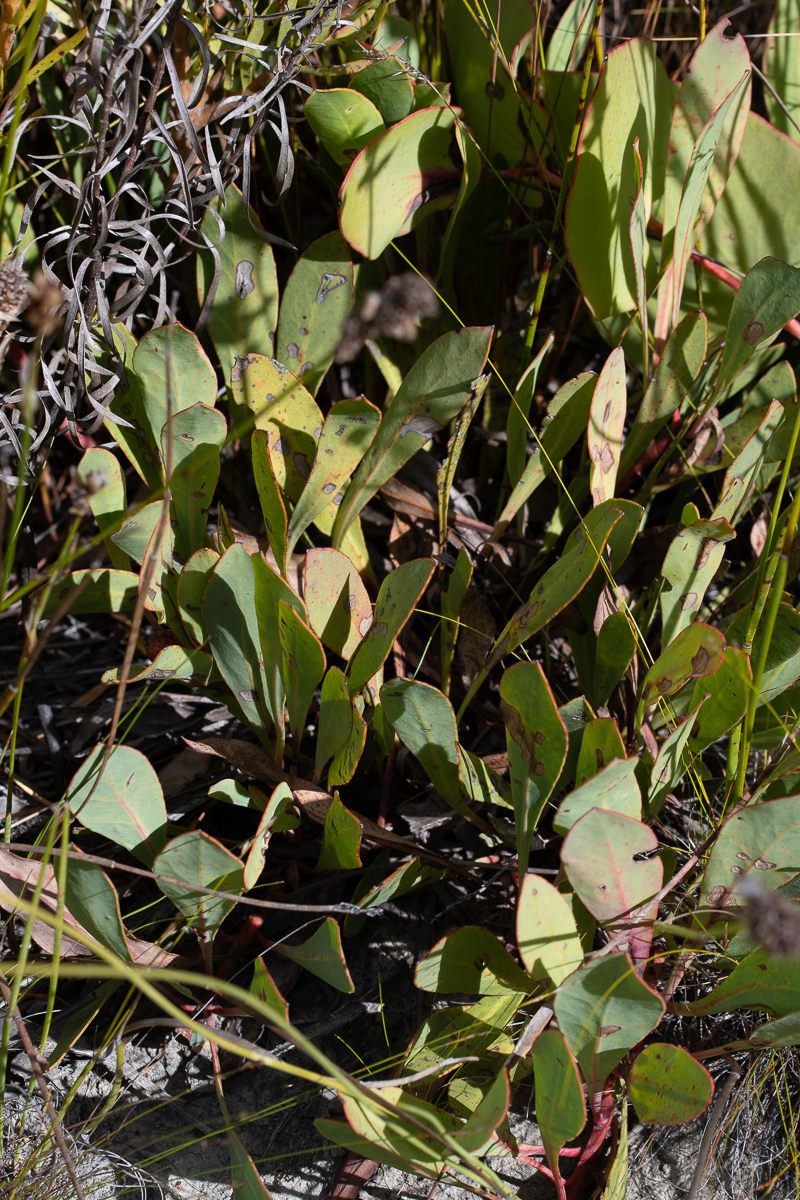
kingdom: Plantae
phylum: Tracheophyta
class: Magnoliopsida
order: Proteales
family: Proteaceae
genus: Protea
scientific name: Protea acaulos
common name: Common ground sugarbush
